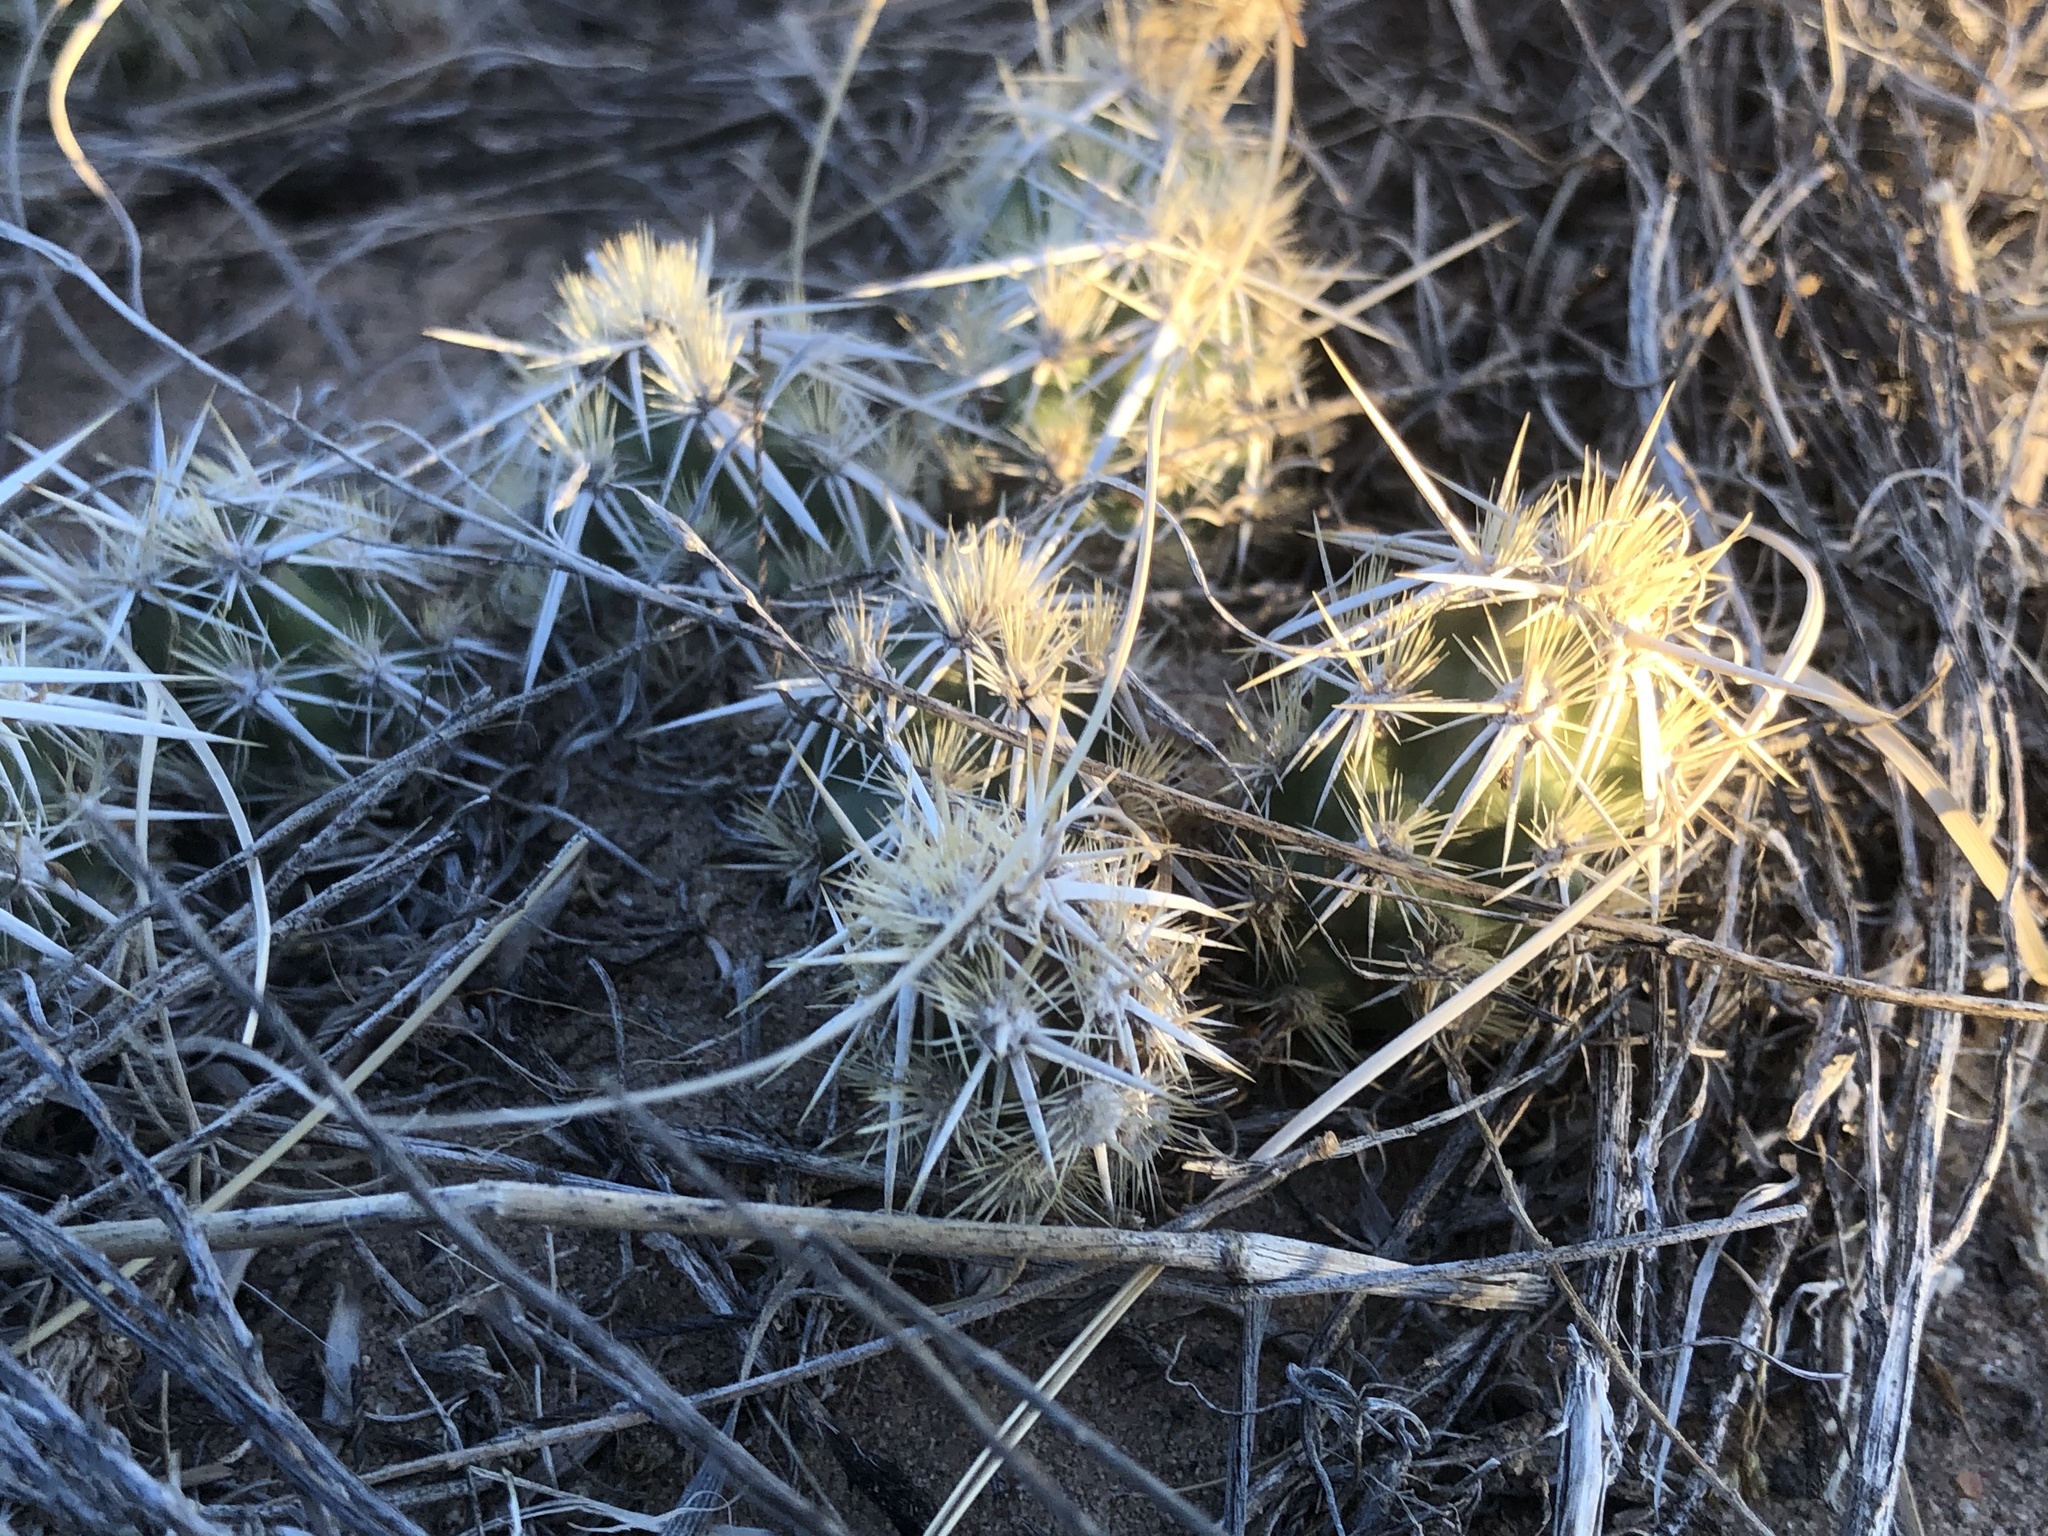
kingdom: Plantae
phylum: Tracheophyta
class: Magnoliopsida
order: Caryophyllales
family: Cactaceae
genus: Grusonia
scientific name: Grusonia clavata
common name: Club cholla
